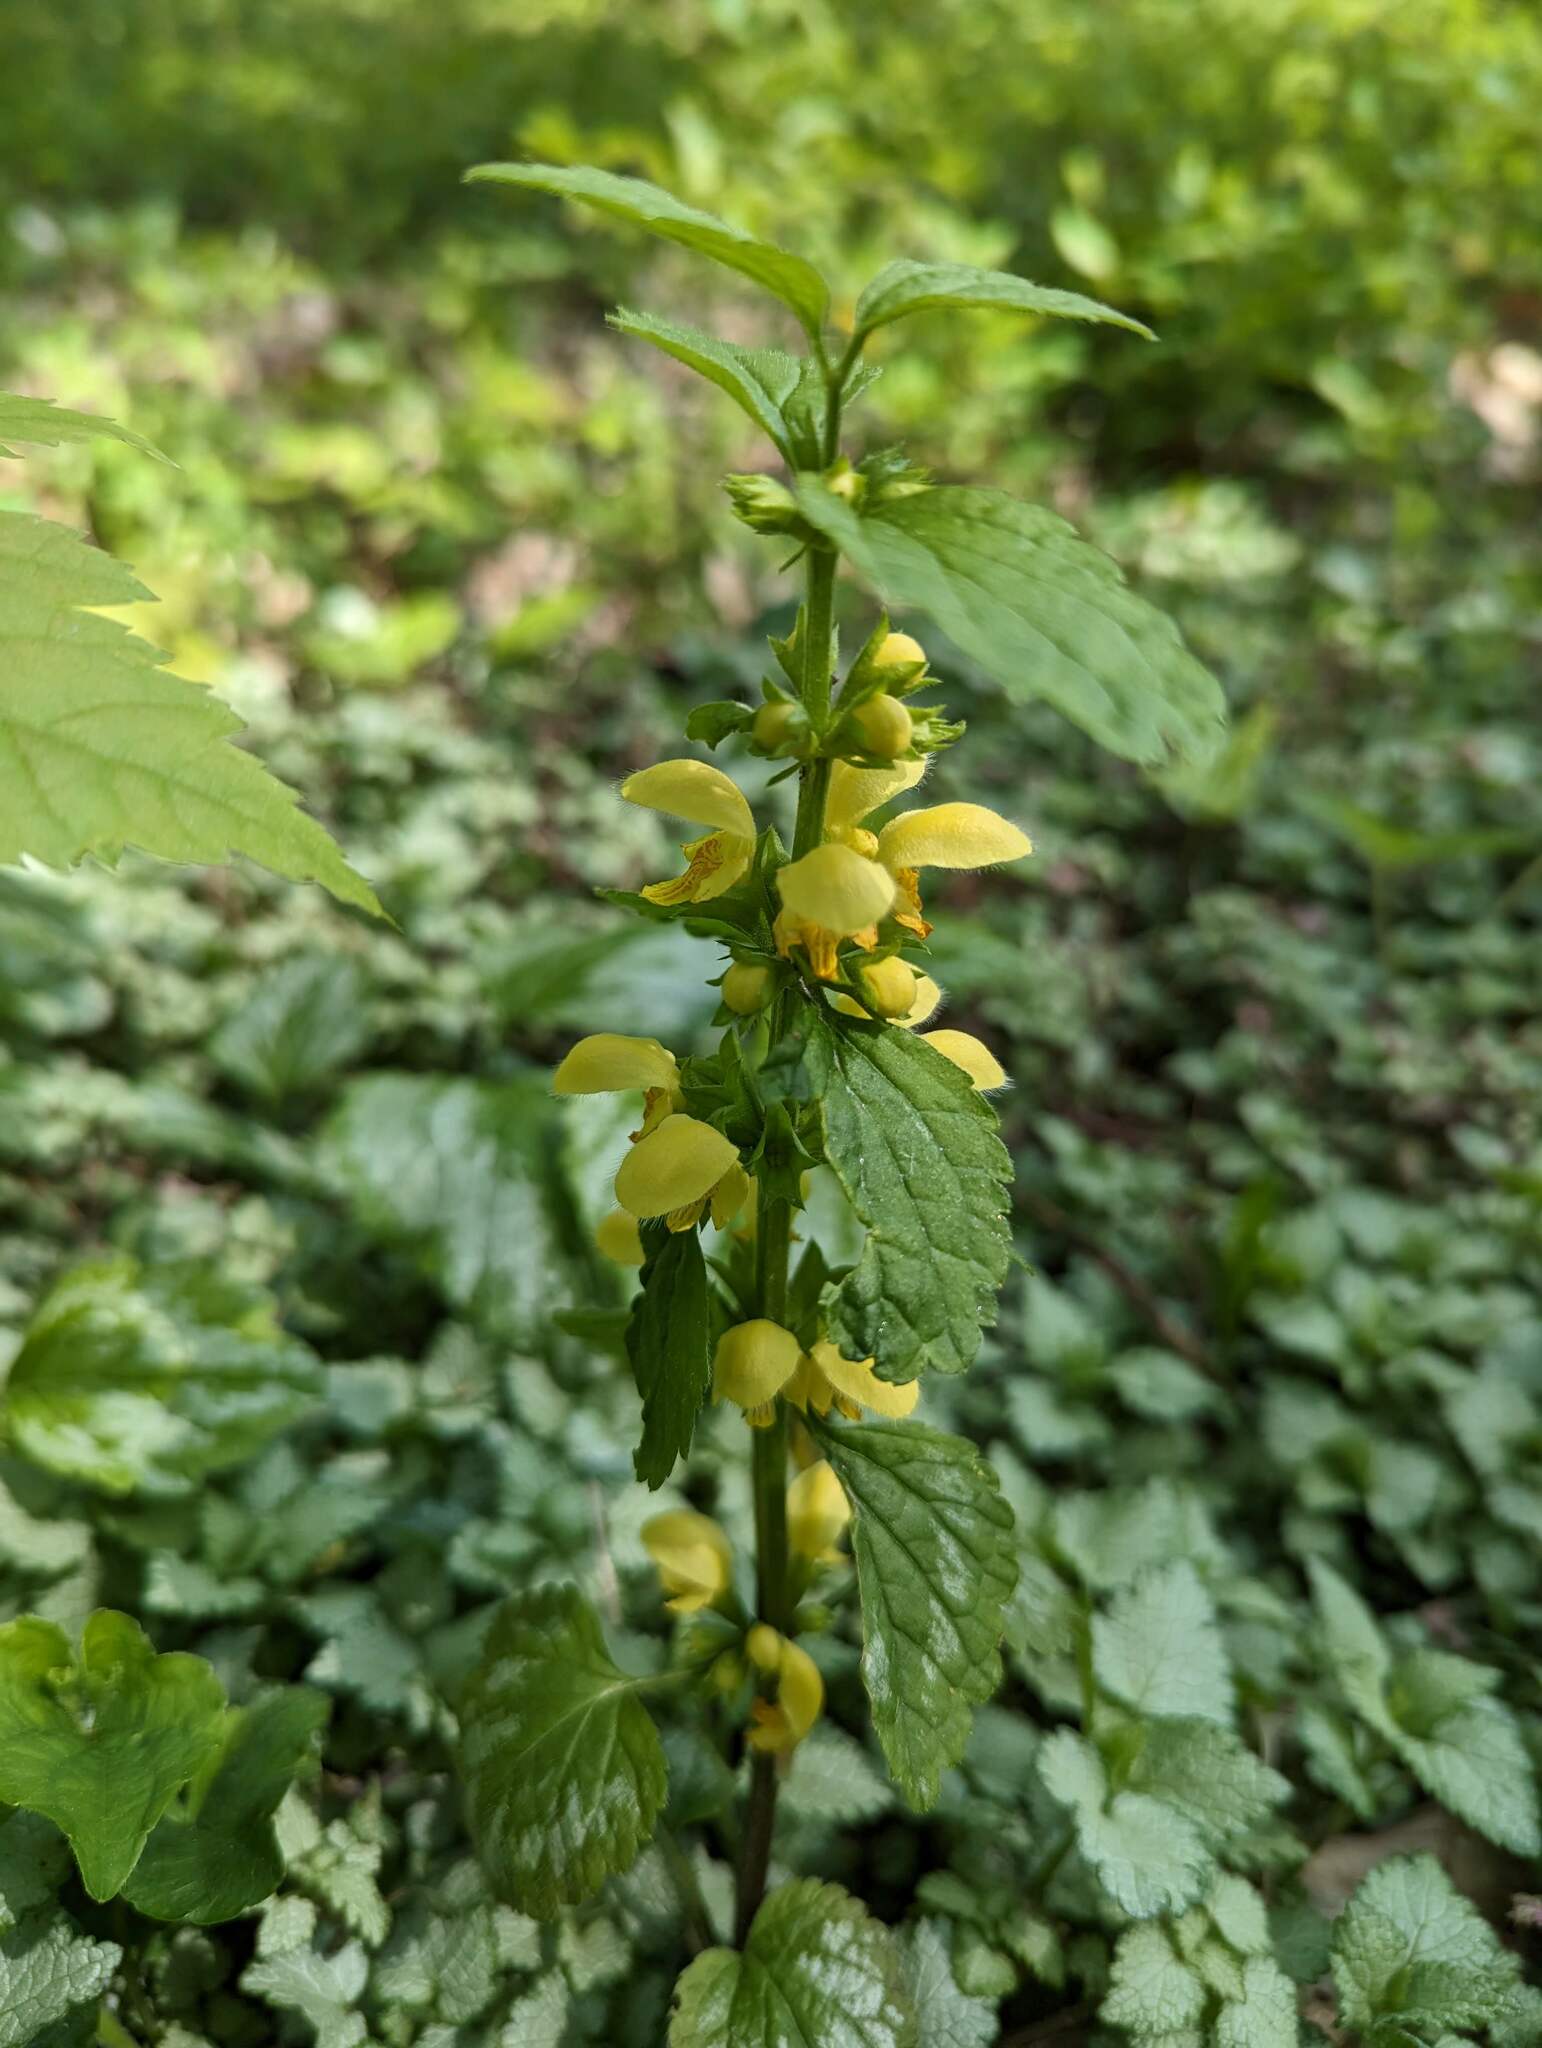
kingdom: Plantae
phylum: Tracheophyta
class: Magnoliopsida
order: Lamiales
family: Lamiaceae
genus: Lamium
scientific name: Lamium galeobdolon
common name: Yellow archangel
